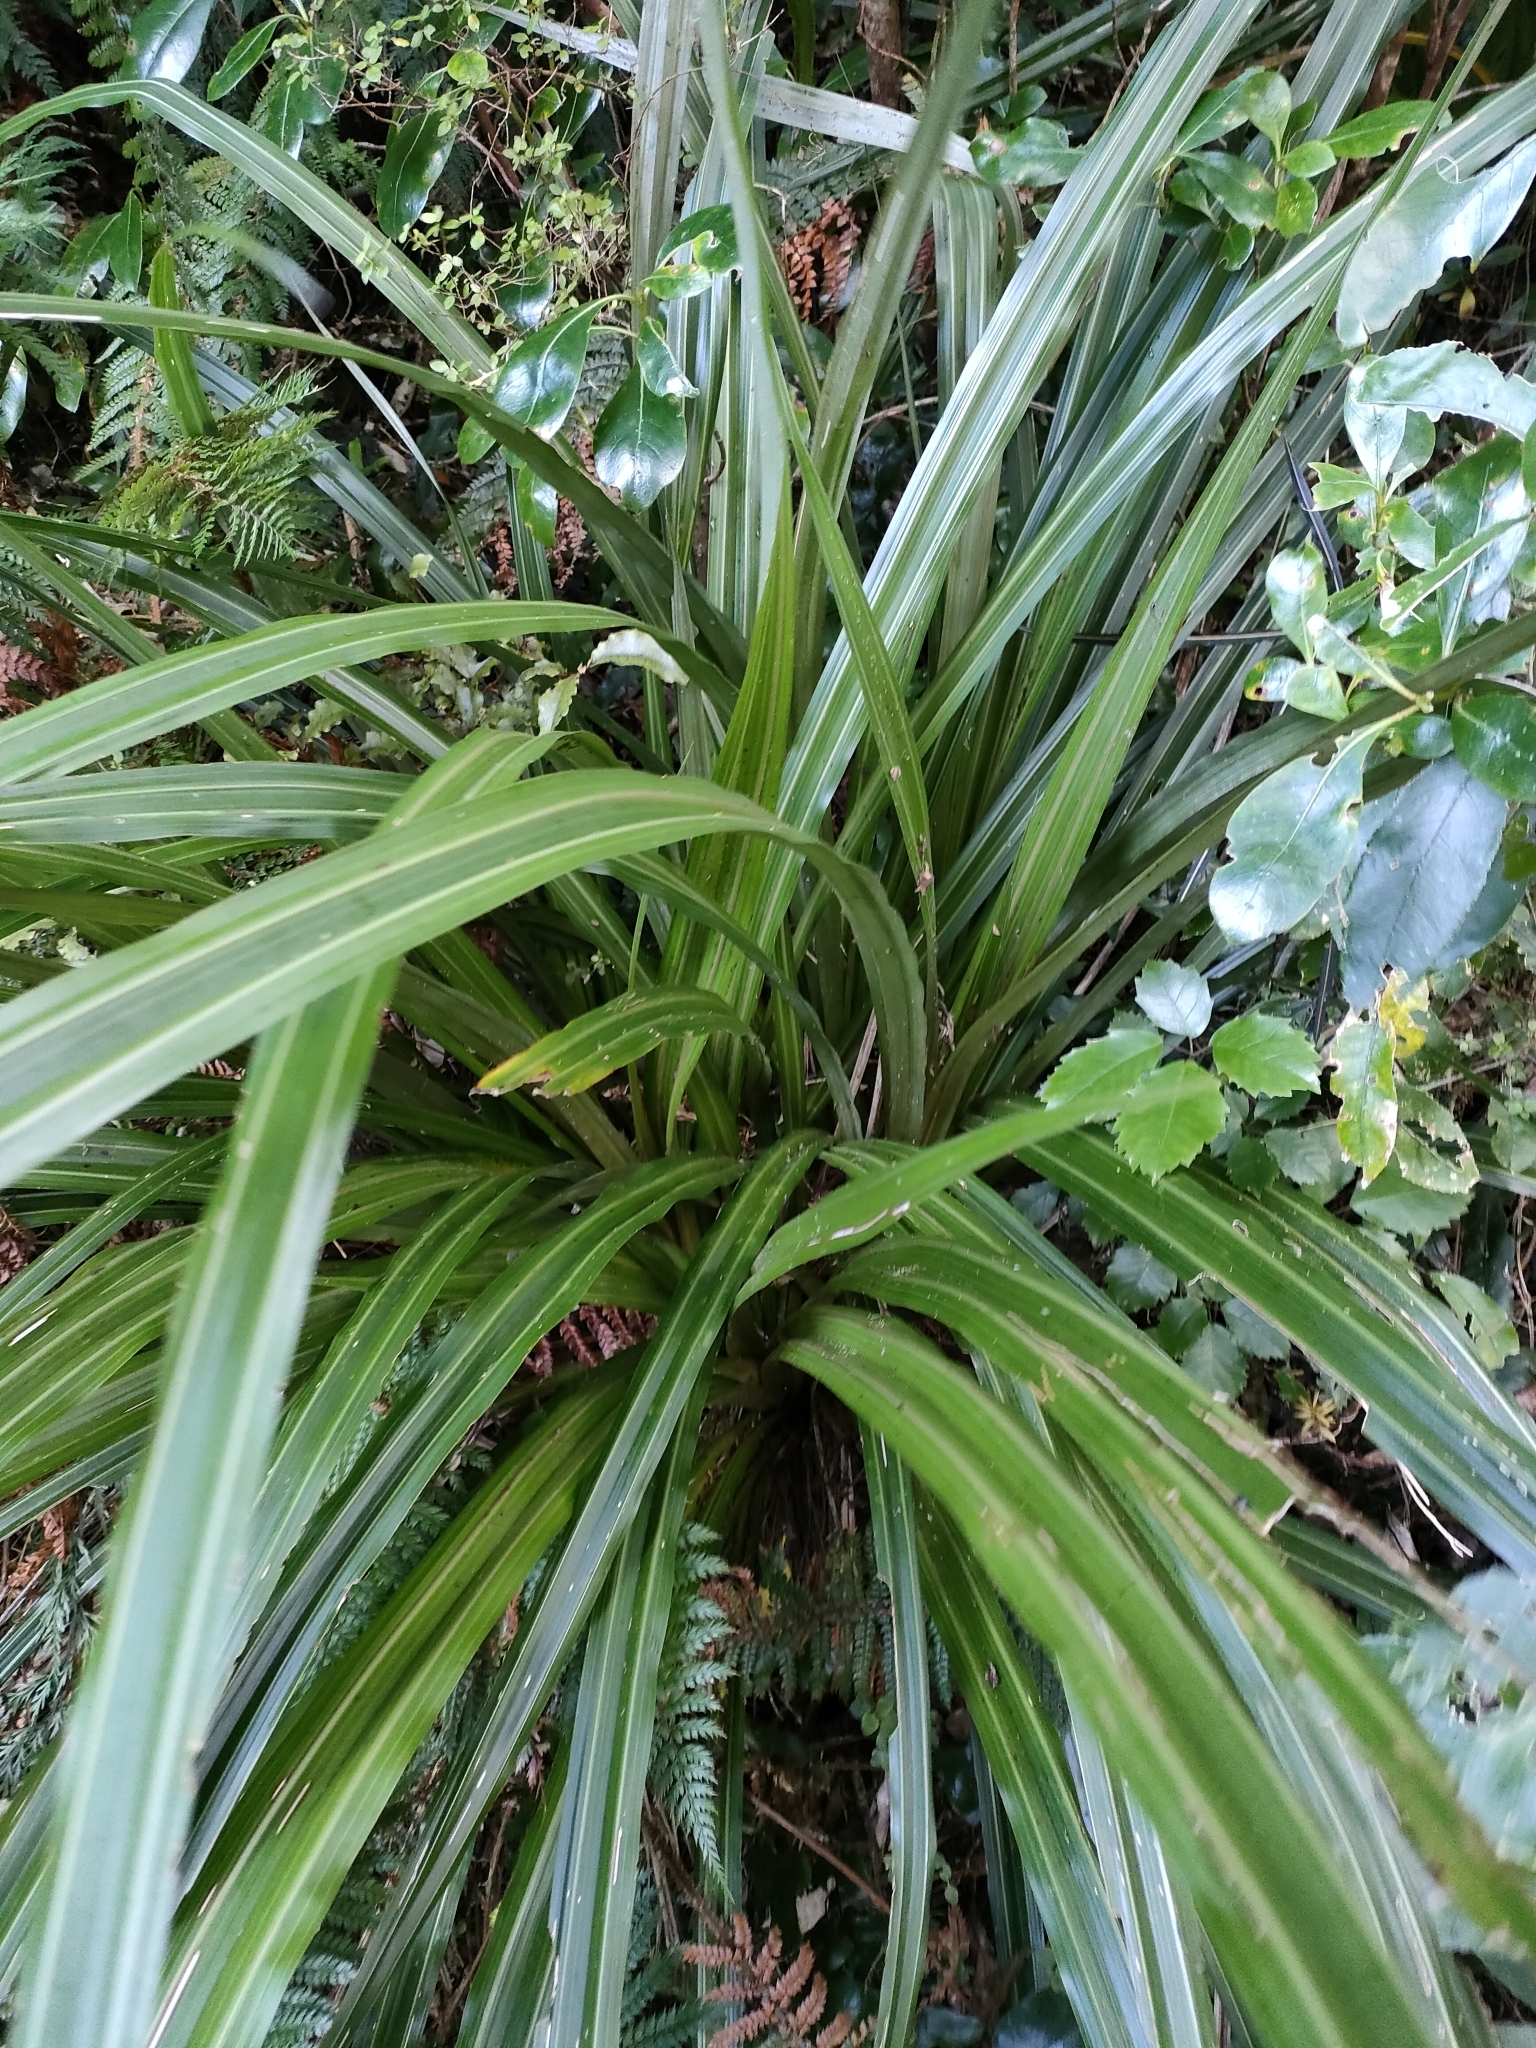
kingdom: Plantae
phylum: Tracheophyta
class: Liliopsida
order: Asparagales
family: Asteliaceae
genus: Astelia
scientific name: Astelia fragrans
